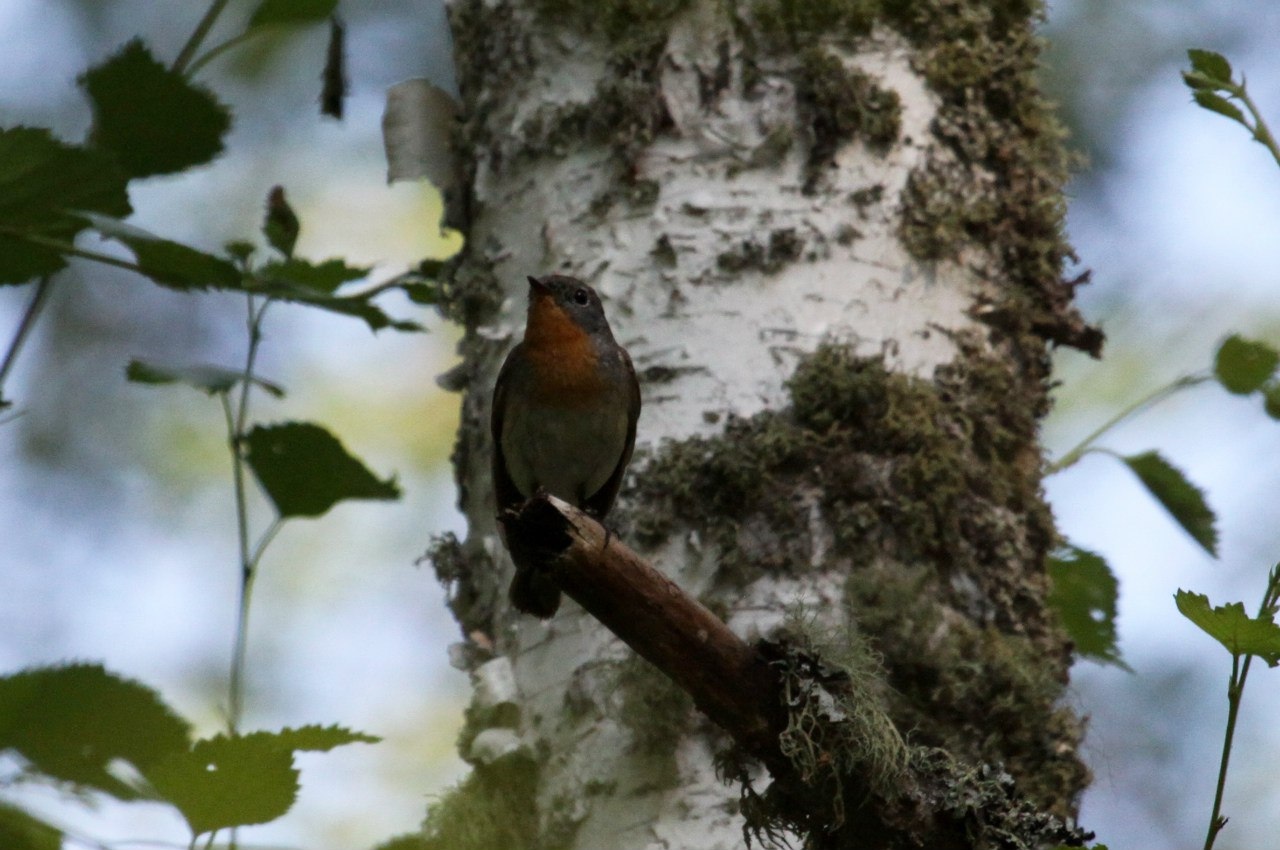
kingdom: Animalia
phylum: Chordata
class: Aves
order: Passeriformes
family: Muscicapidae
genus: Ficedula
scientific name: Ficedula parva
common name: Red-breasted flycatcher
